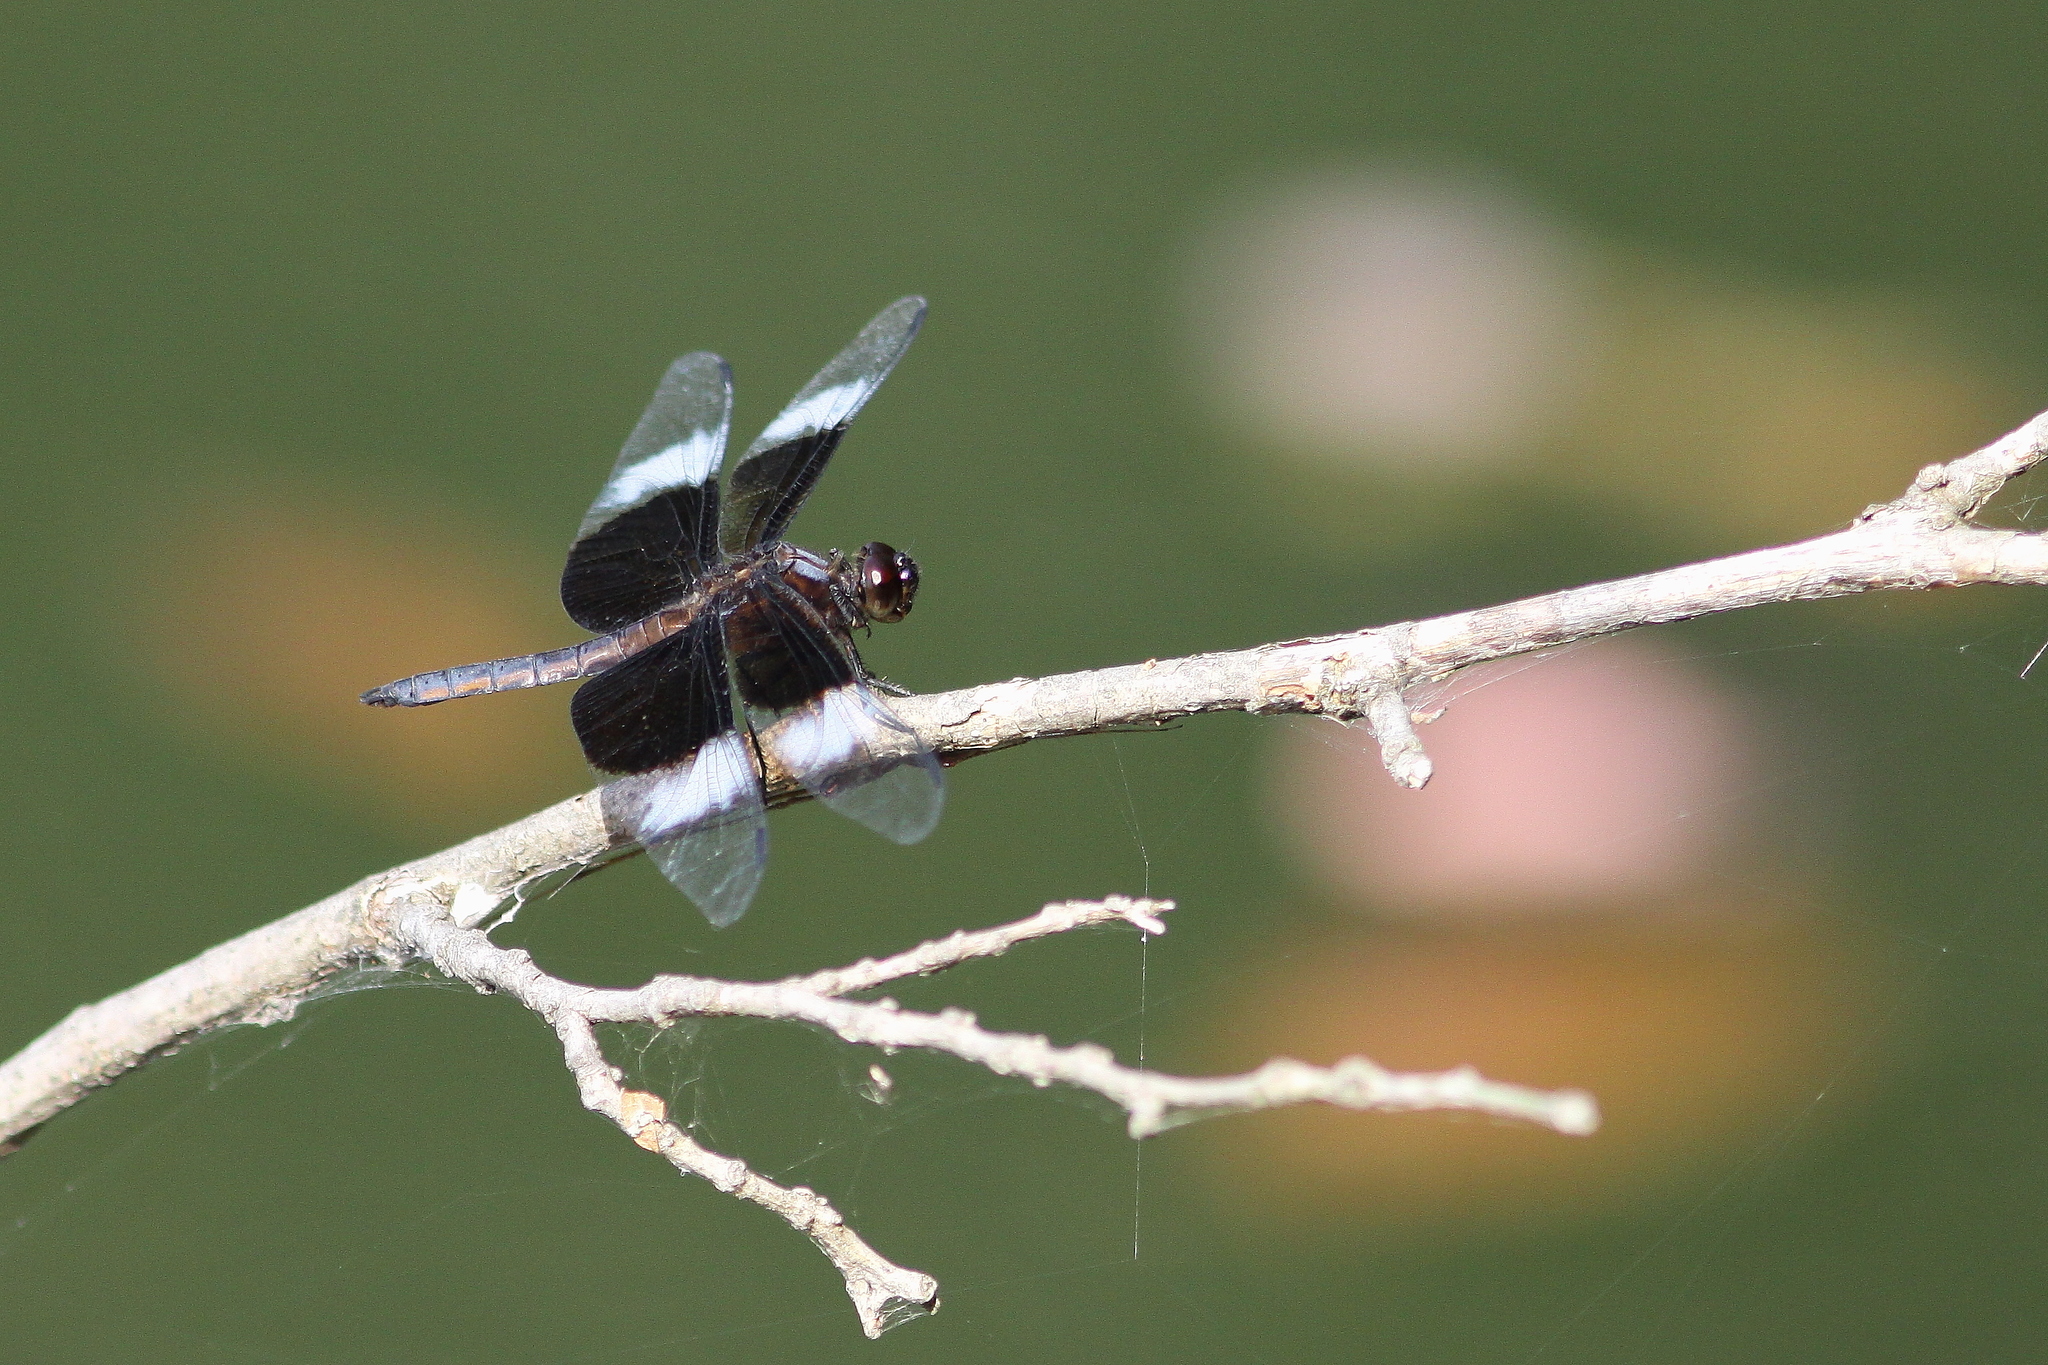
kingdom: Animalia
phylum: Arthropoda
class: Insecta
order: Odonata
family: Libellulidae
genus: Libellula
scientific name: Libellula luctuosa
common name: Widow skimmer
